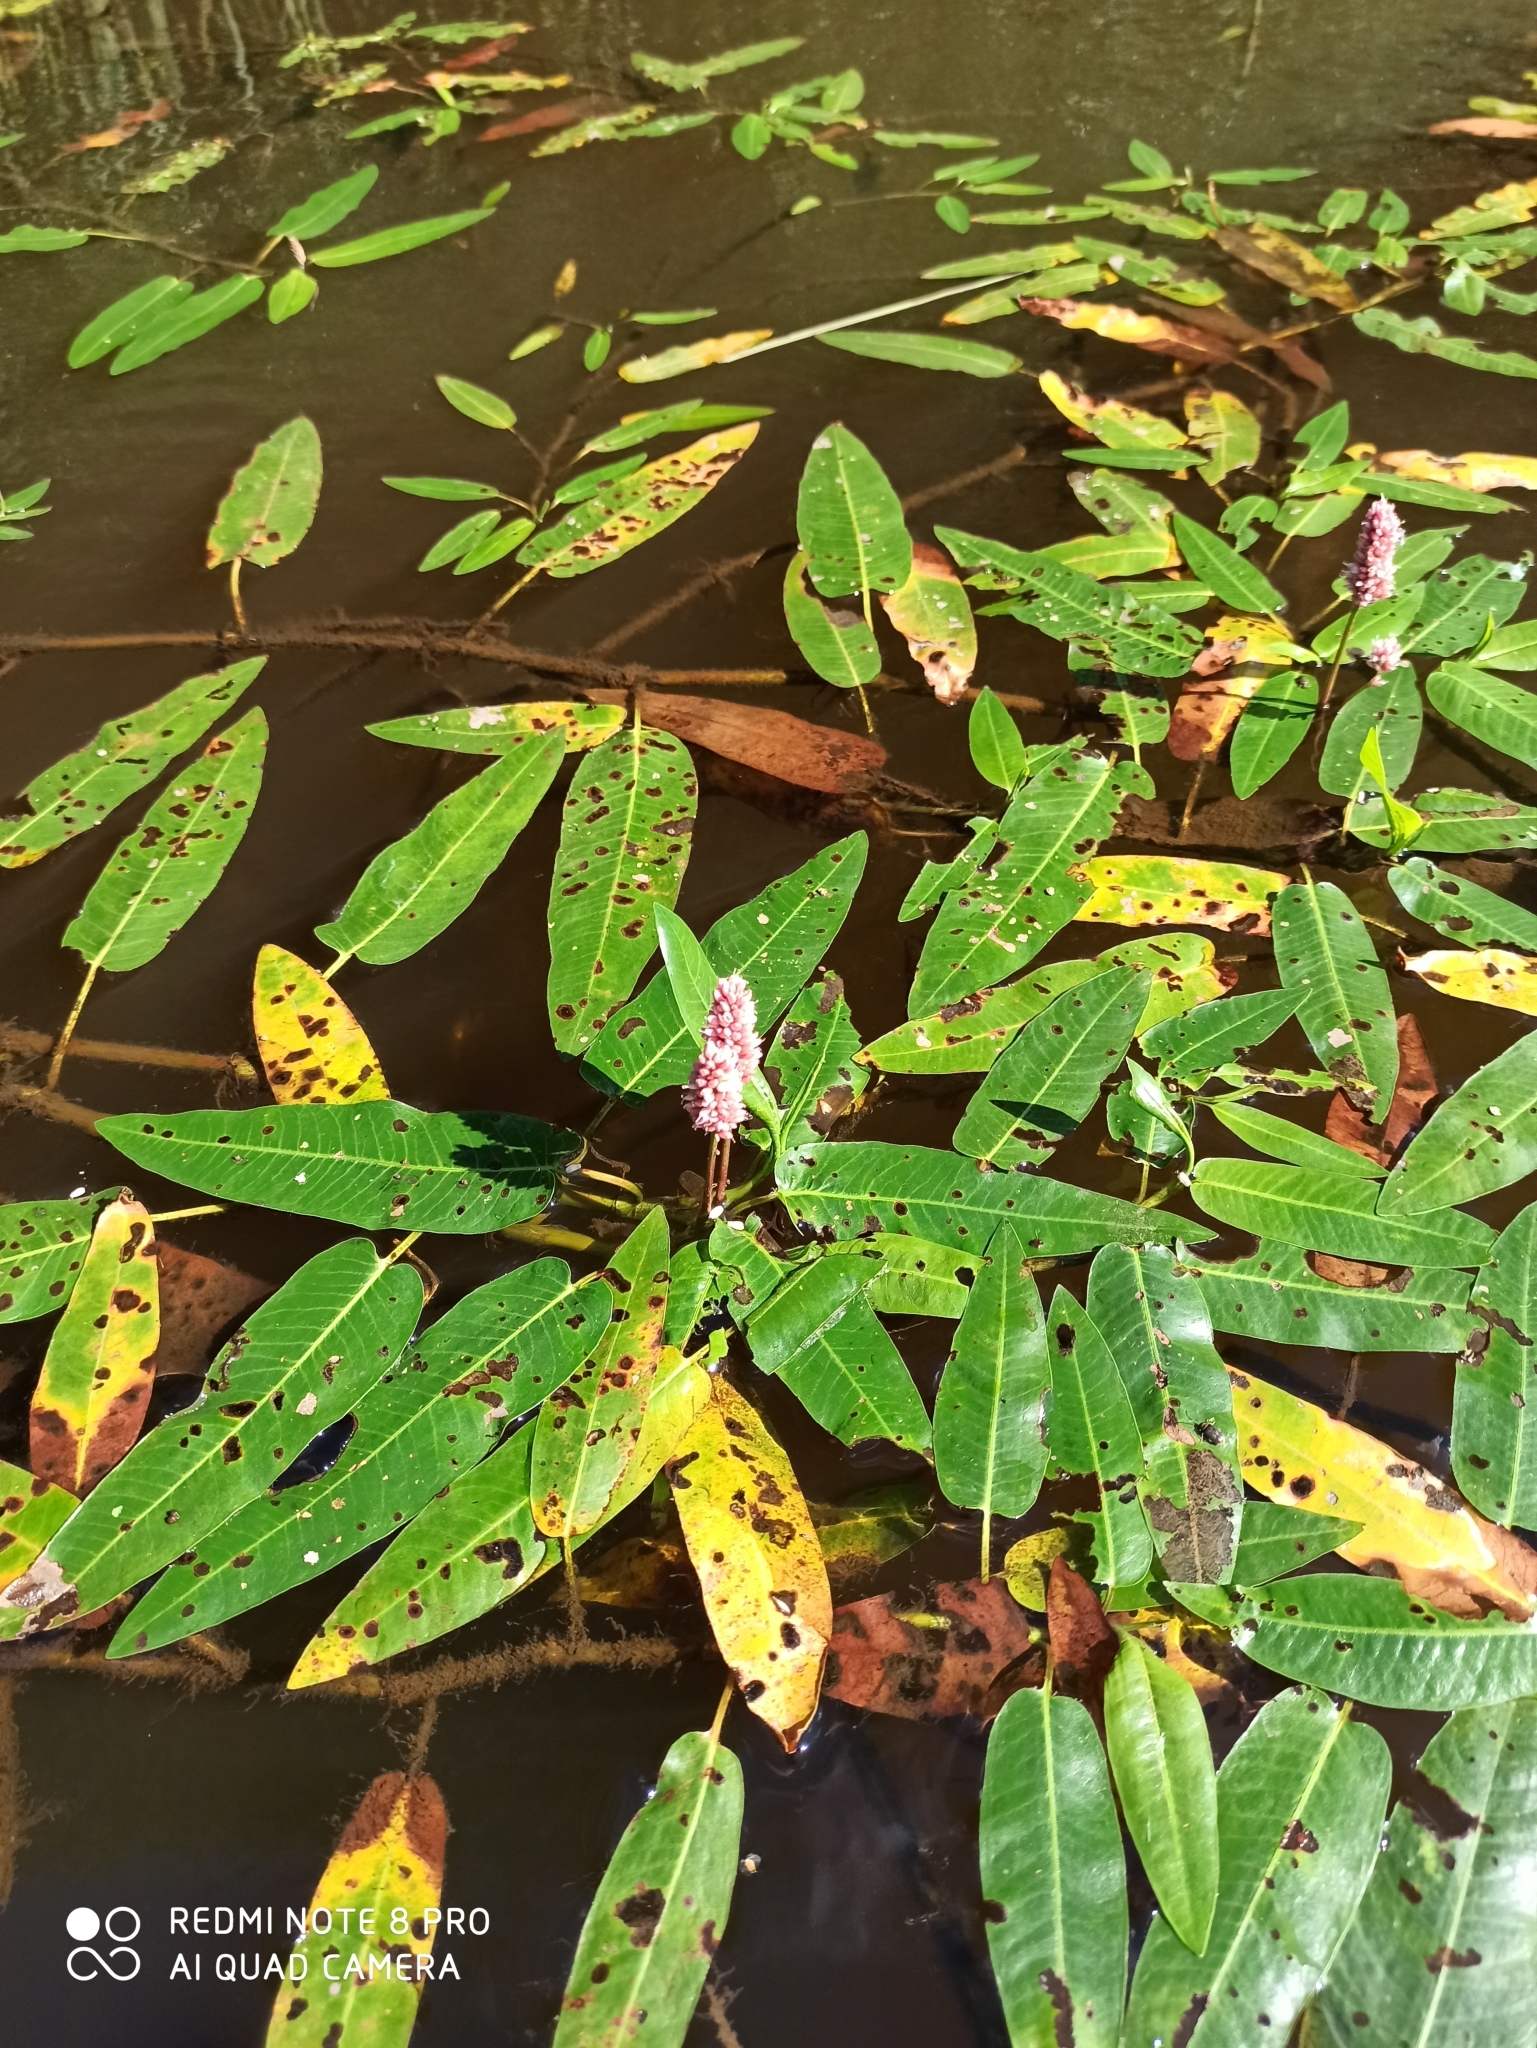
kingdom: Plantae
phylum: Tracheophyta
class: Magnoliopsida
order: Caryophyllales
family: Polygonaceae
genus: Persicaria
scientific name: Persicaria amphibia
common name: Amphibious bistort
